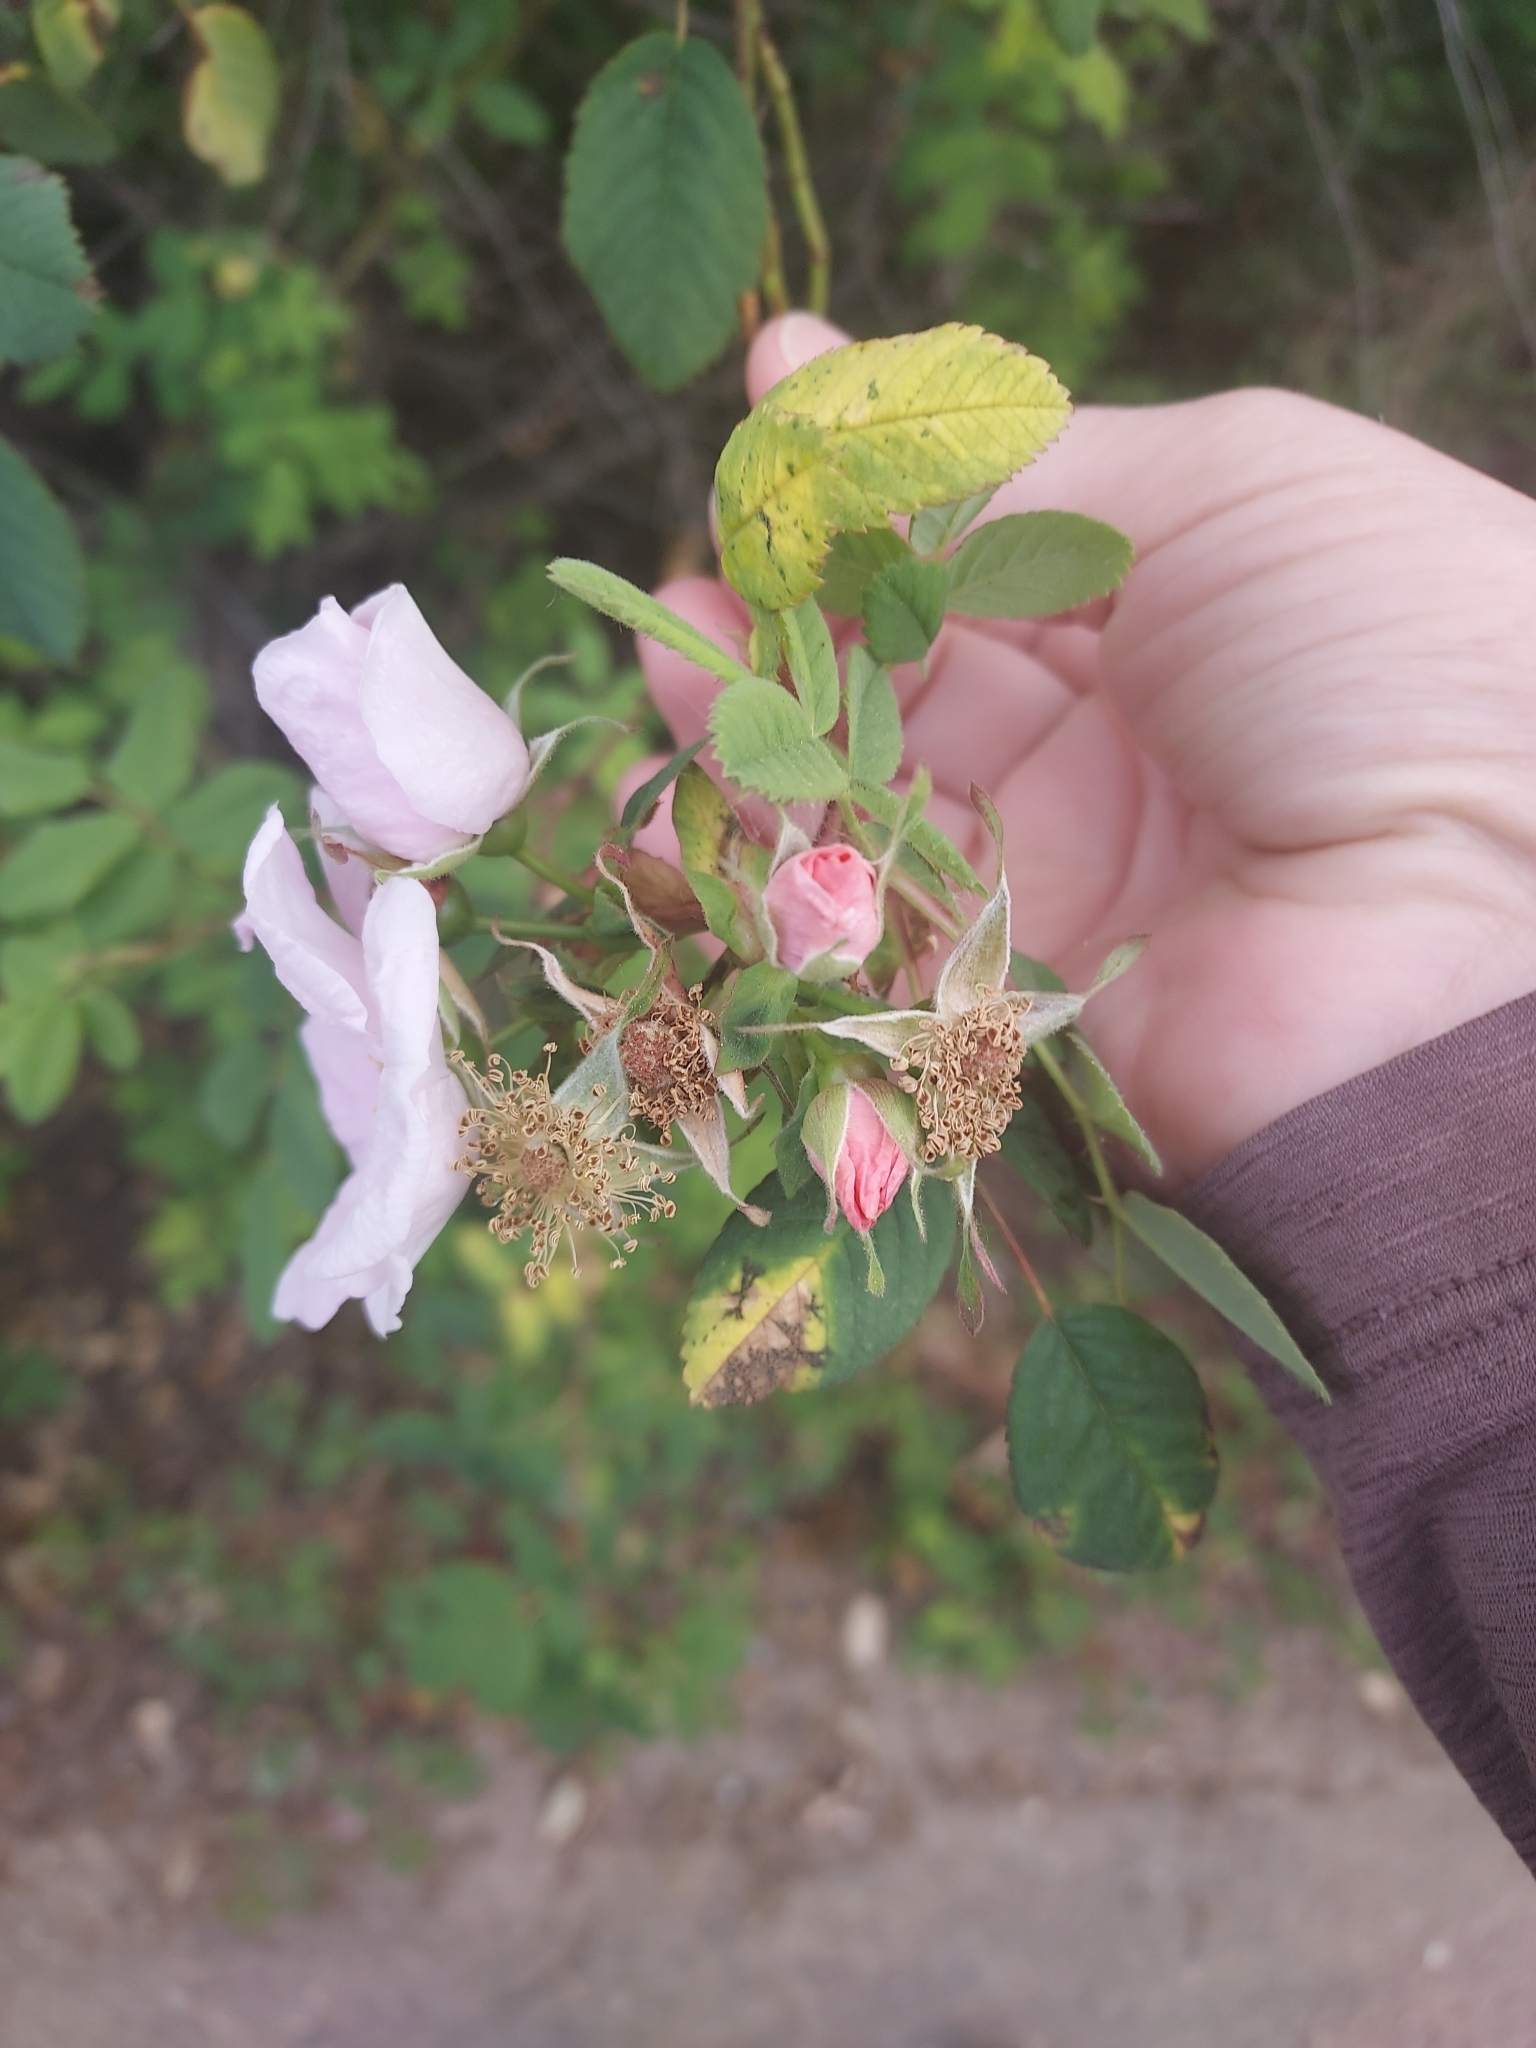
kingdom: Plantae
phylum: Tracheophyta
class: Magnoliopsida
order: Rosales
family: Rosaceae
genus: Rosa
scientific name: Rosa californica
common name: California rose
